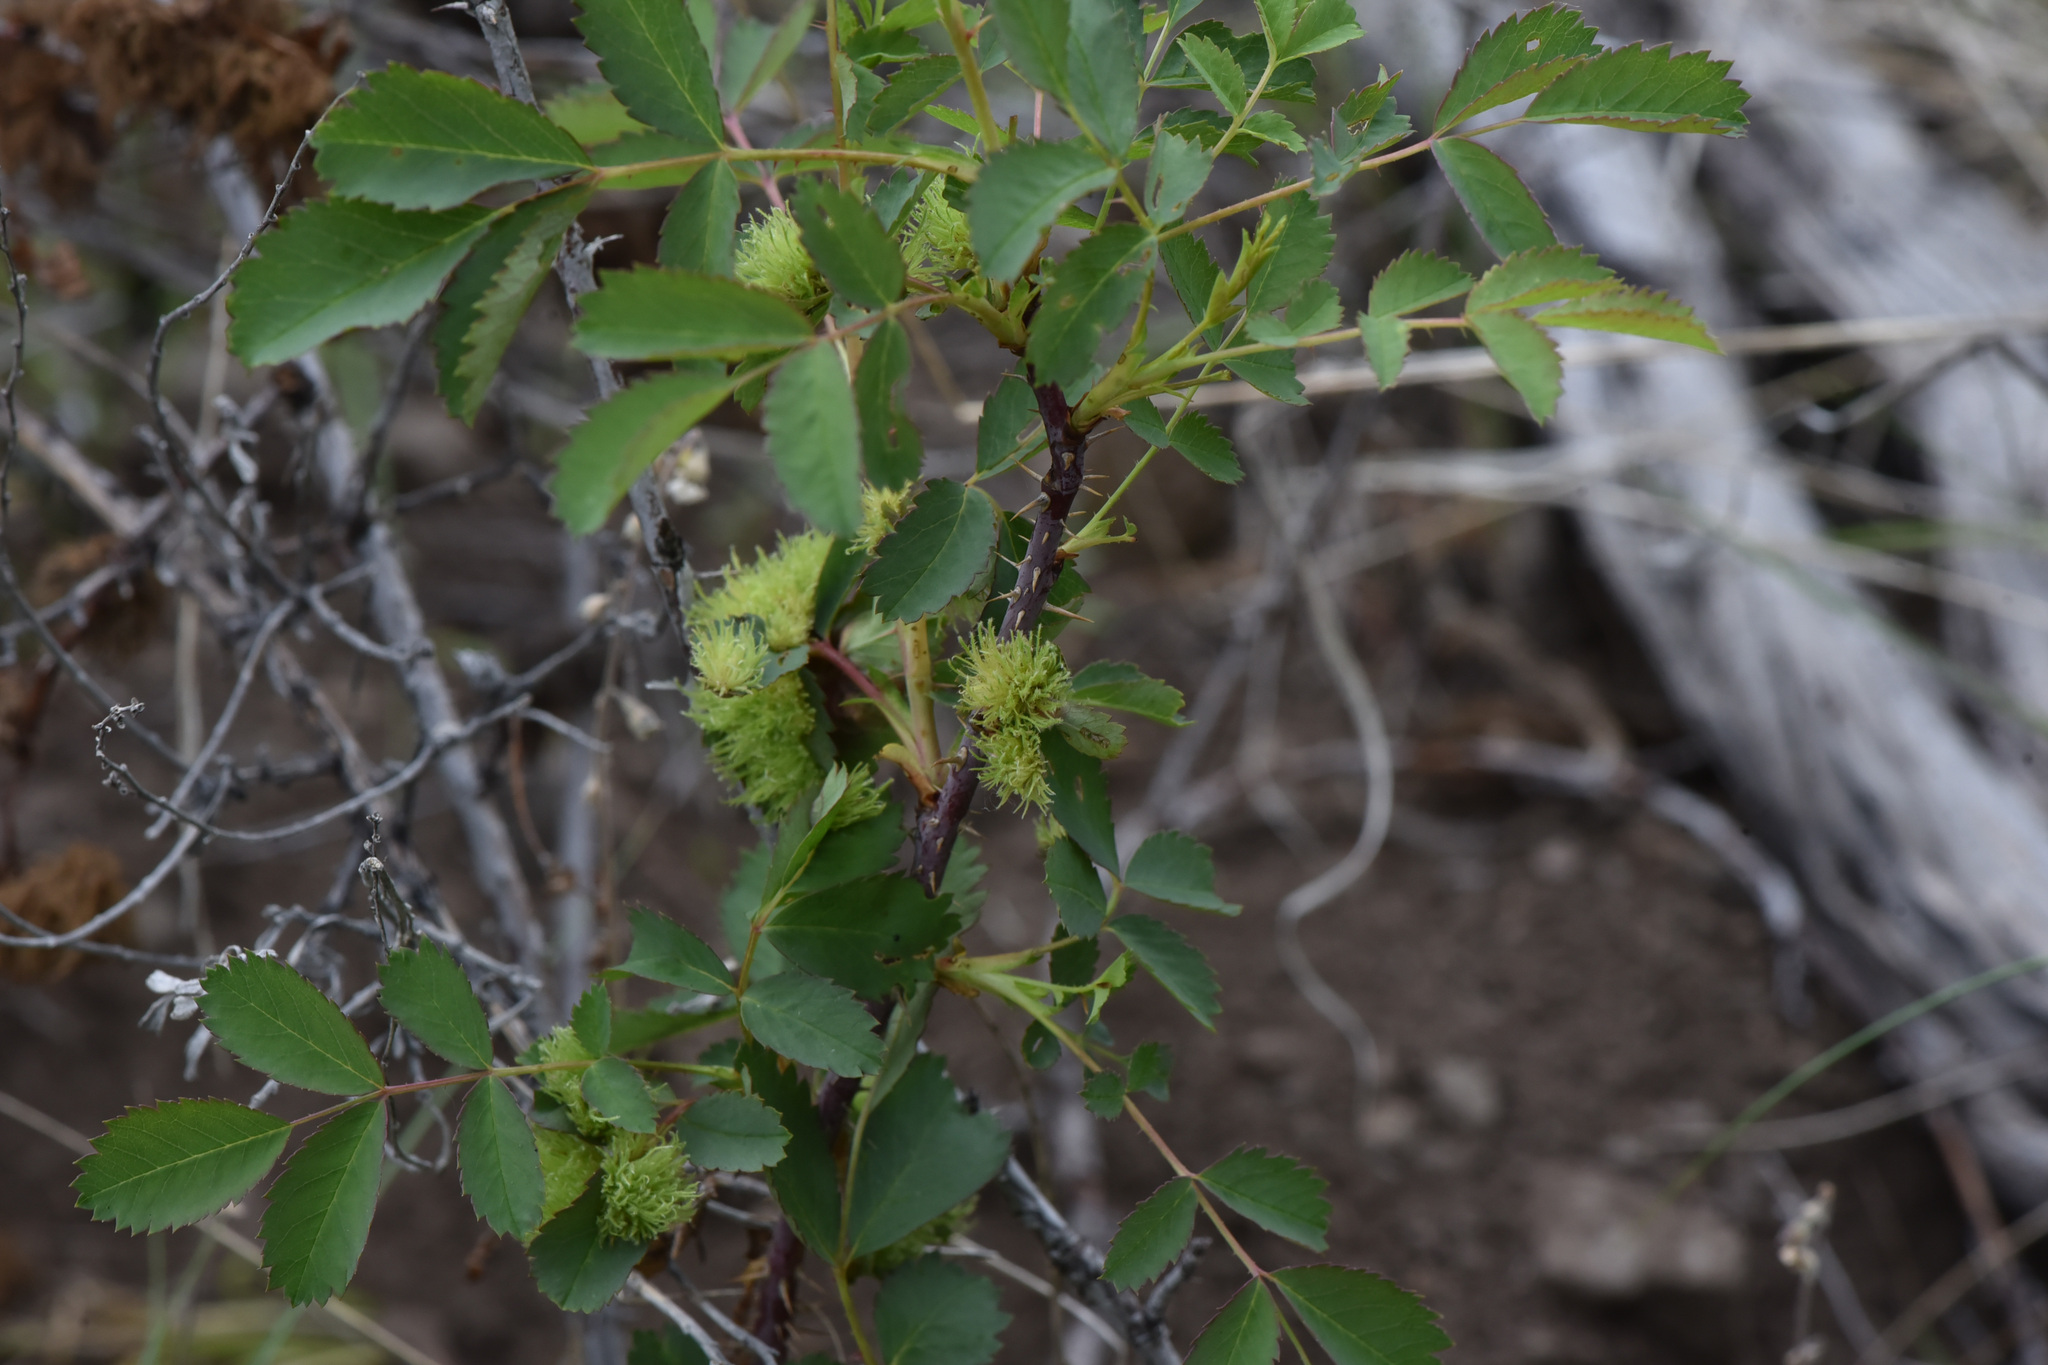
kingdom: Animalia
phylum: Arthropoda
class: Insecta
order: Hymenoptera
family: Cynipidae
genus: Diplolepis
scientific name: Diplolepis bassetti
